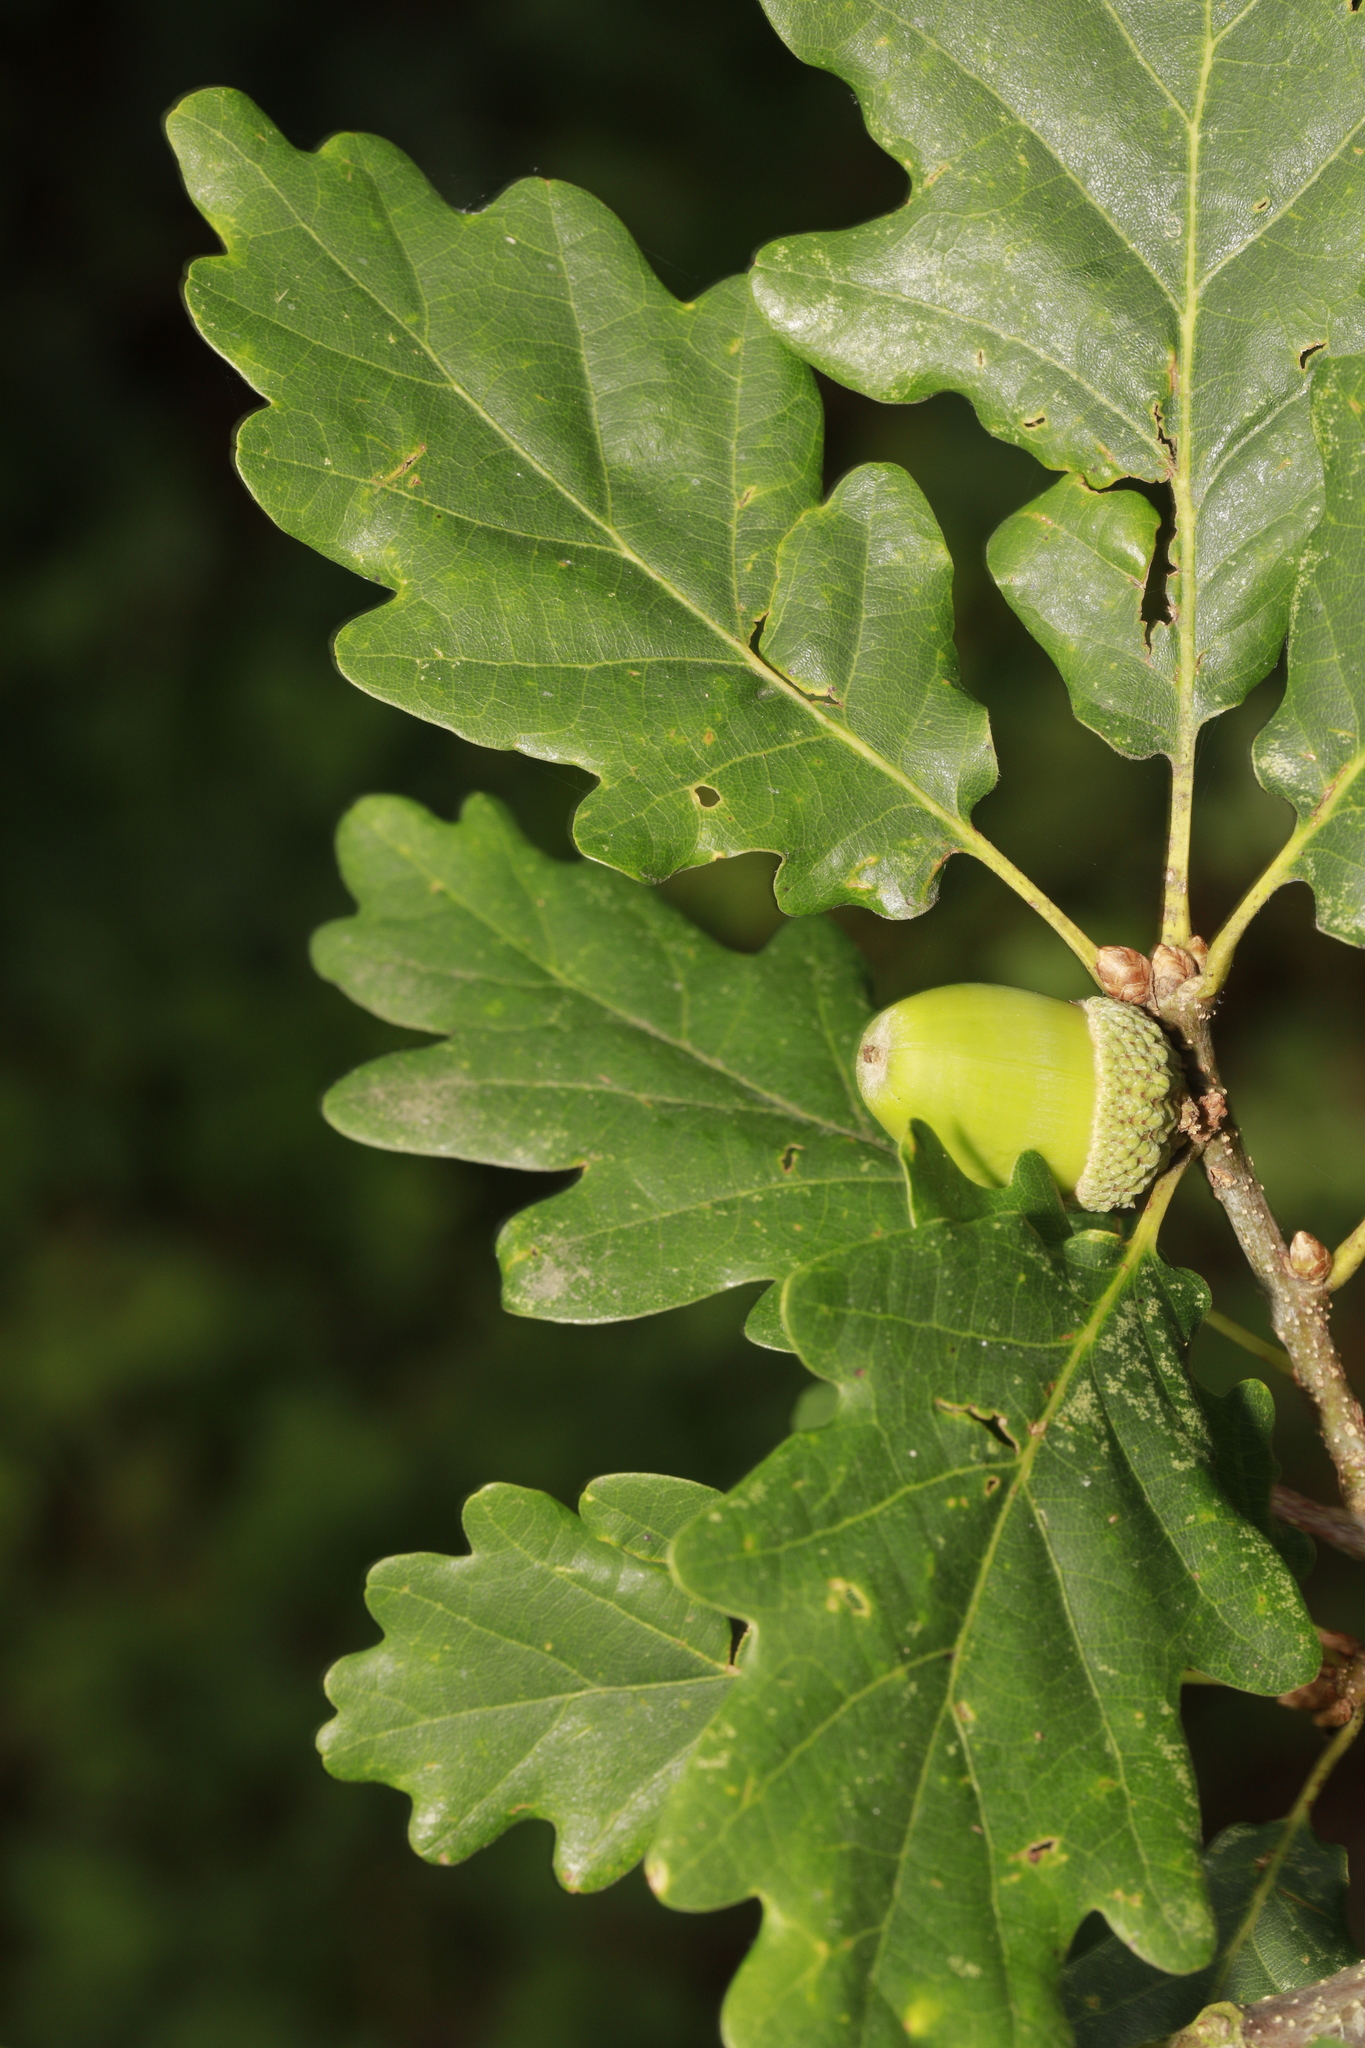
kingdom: Plantae
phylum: Tracheophyta
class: Magnoliopsida
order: Fagales
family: Fagaceae
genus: Quercus
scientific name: Quercus petraea
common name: Sessile oak
